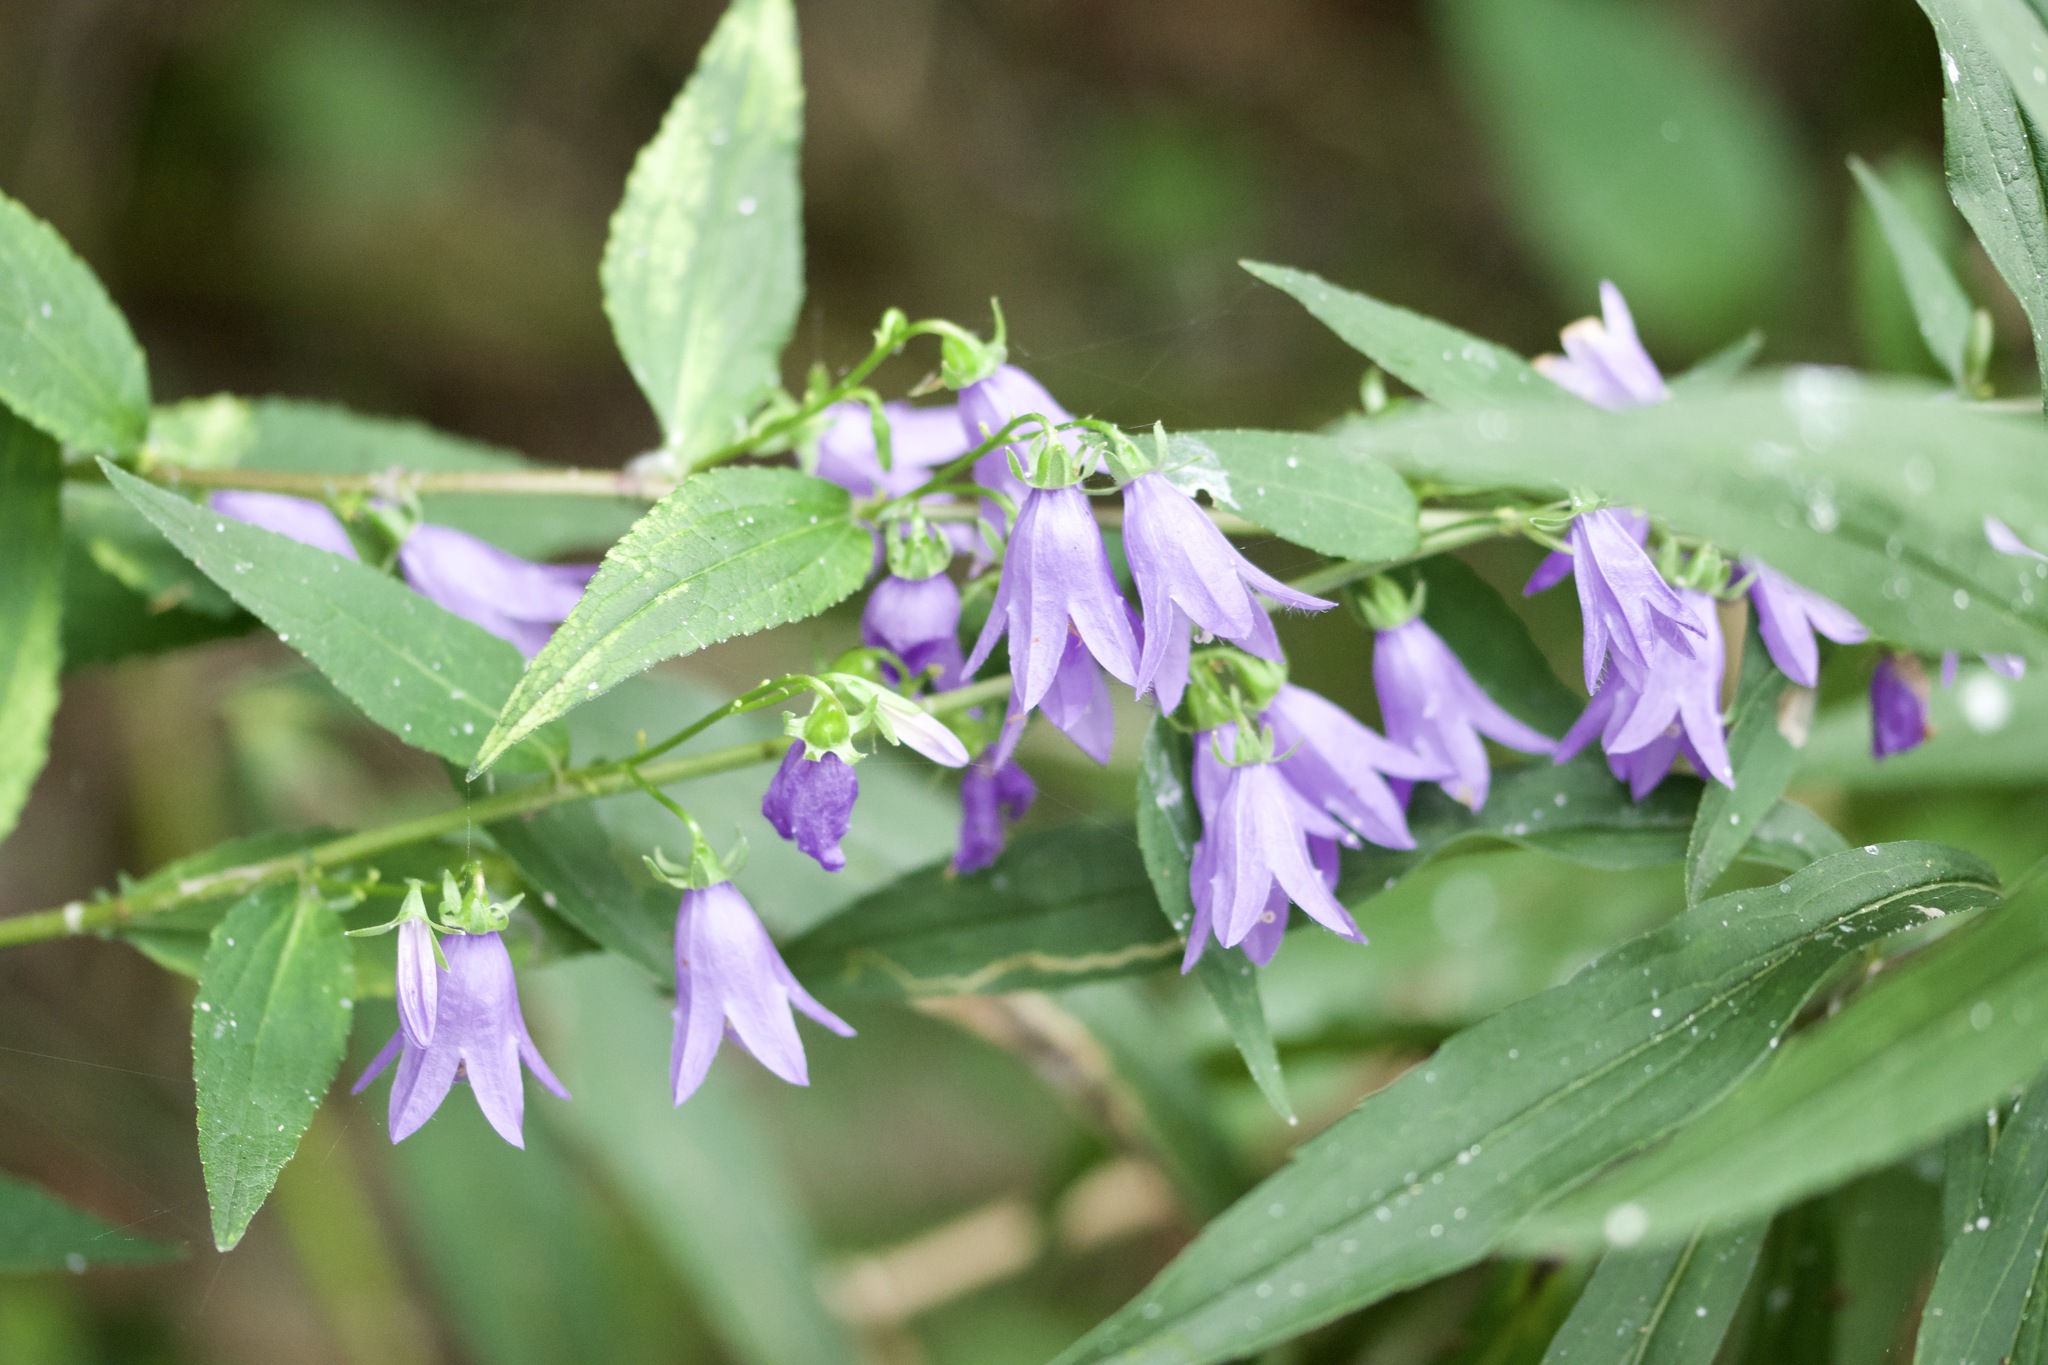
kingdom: Plantae
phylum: Tracheophyta
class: Magnoliopsida
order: Asterales
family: Campanulaceae
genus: Campanula
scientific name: Campanula rapunculoides
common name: Creeping bellflower
